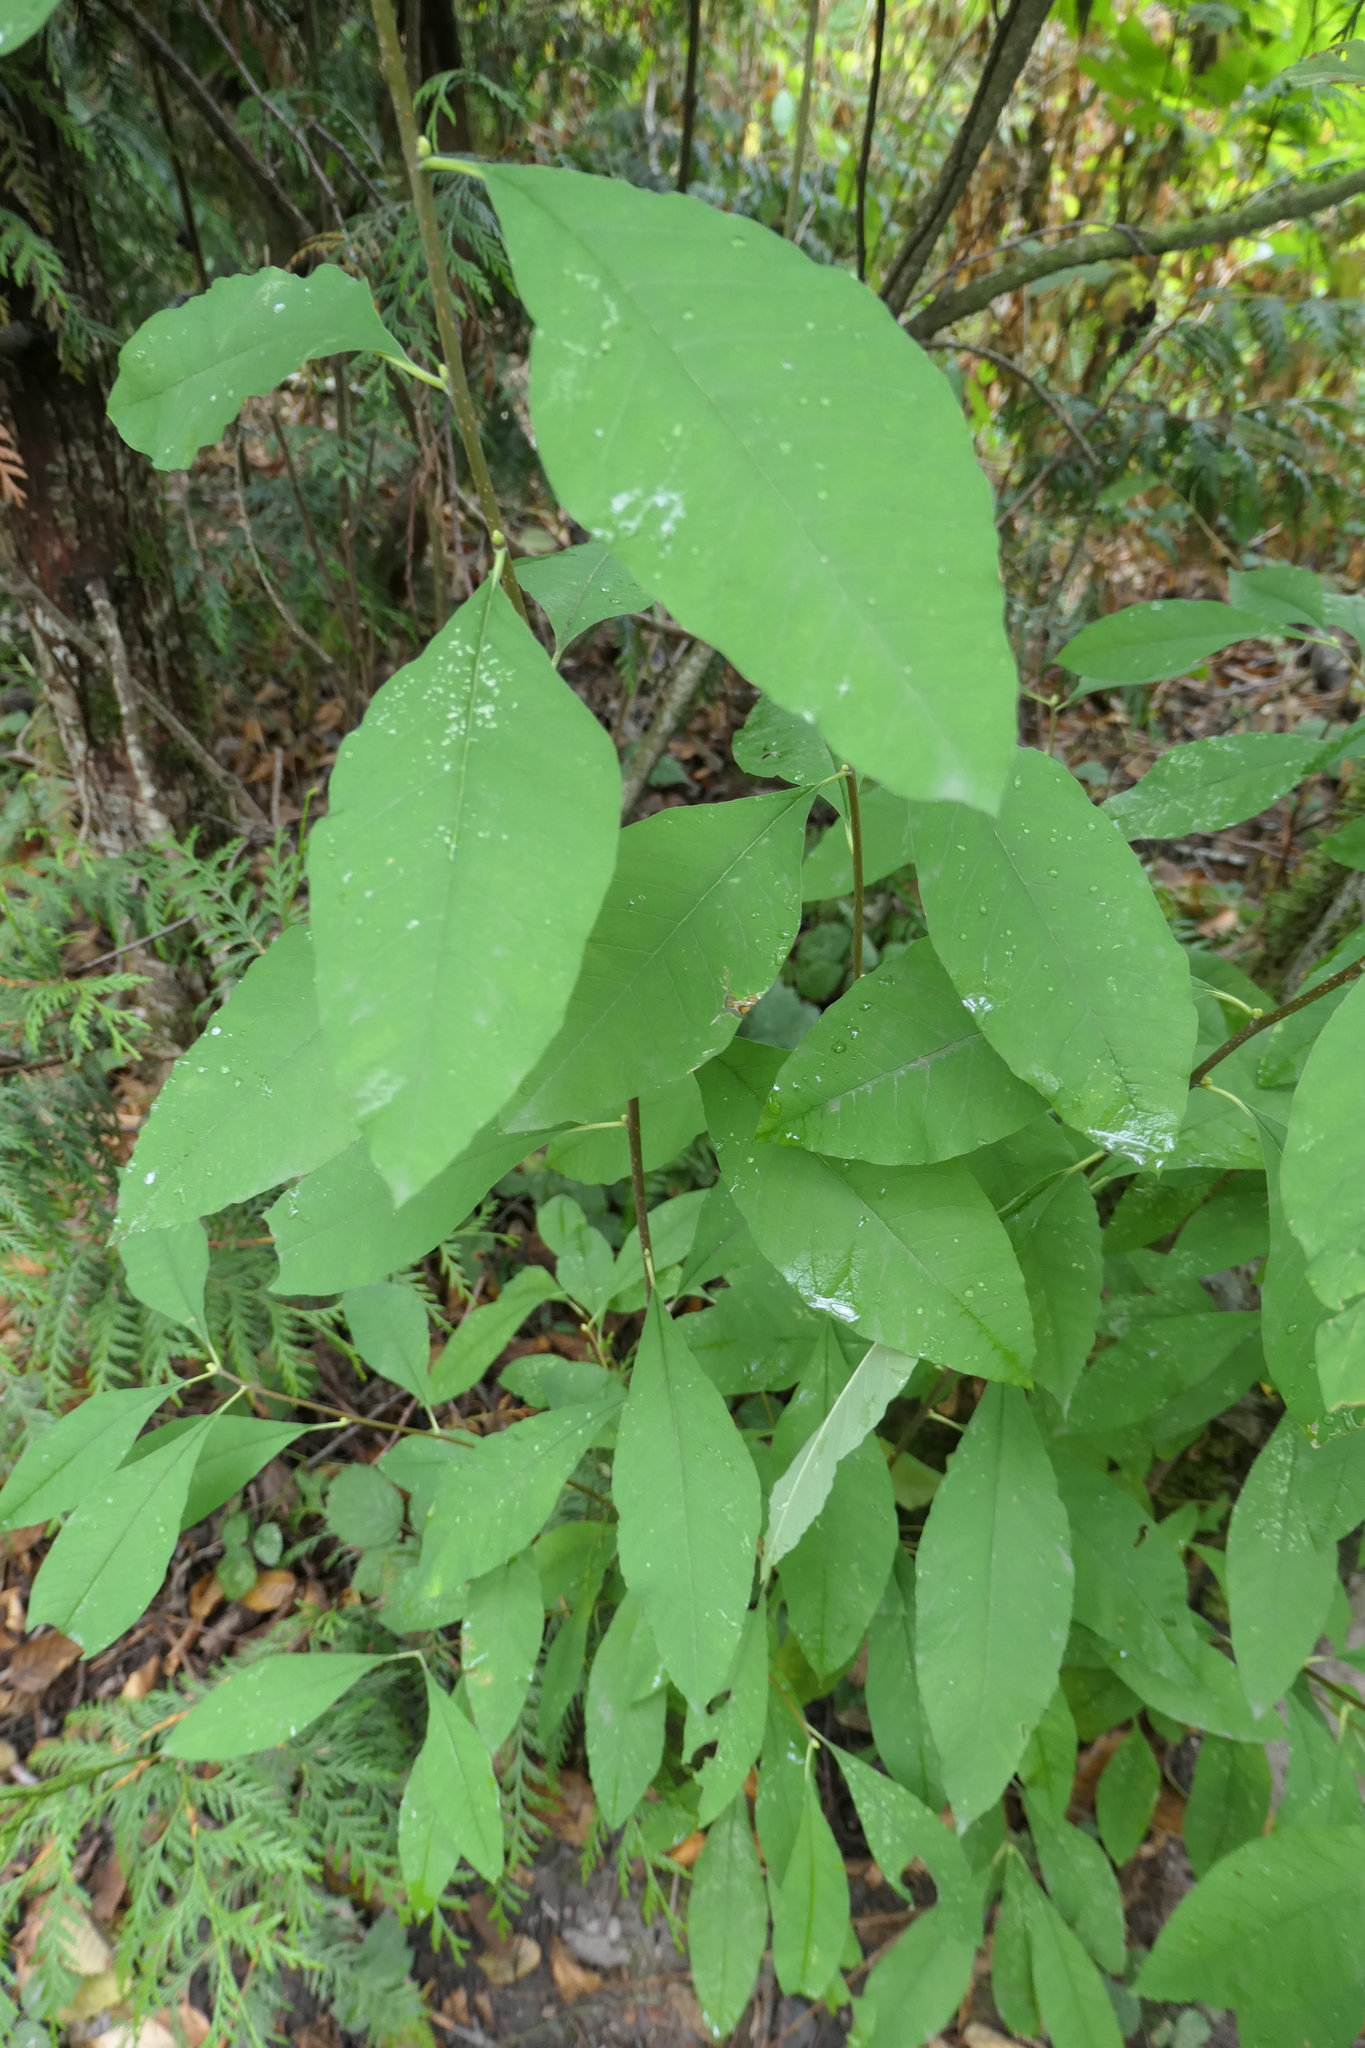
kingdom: Plantae
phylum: Tracheophyta
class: Magnoliopsida
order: Rosales
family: Rosaceae
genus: Oemleria
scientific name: Oemleria cerasiformis
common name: Osoberry
